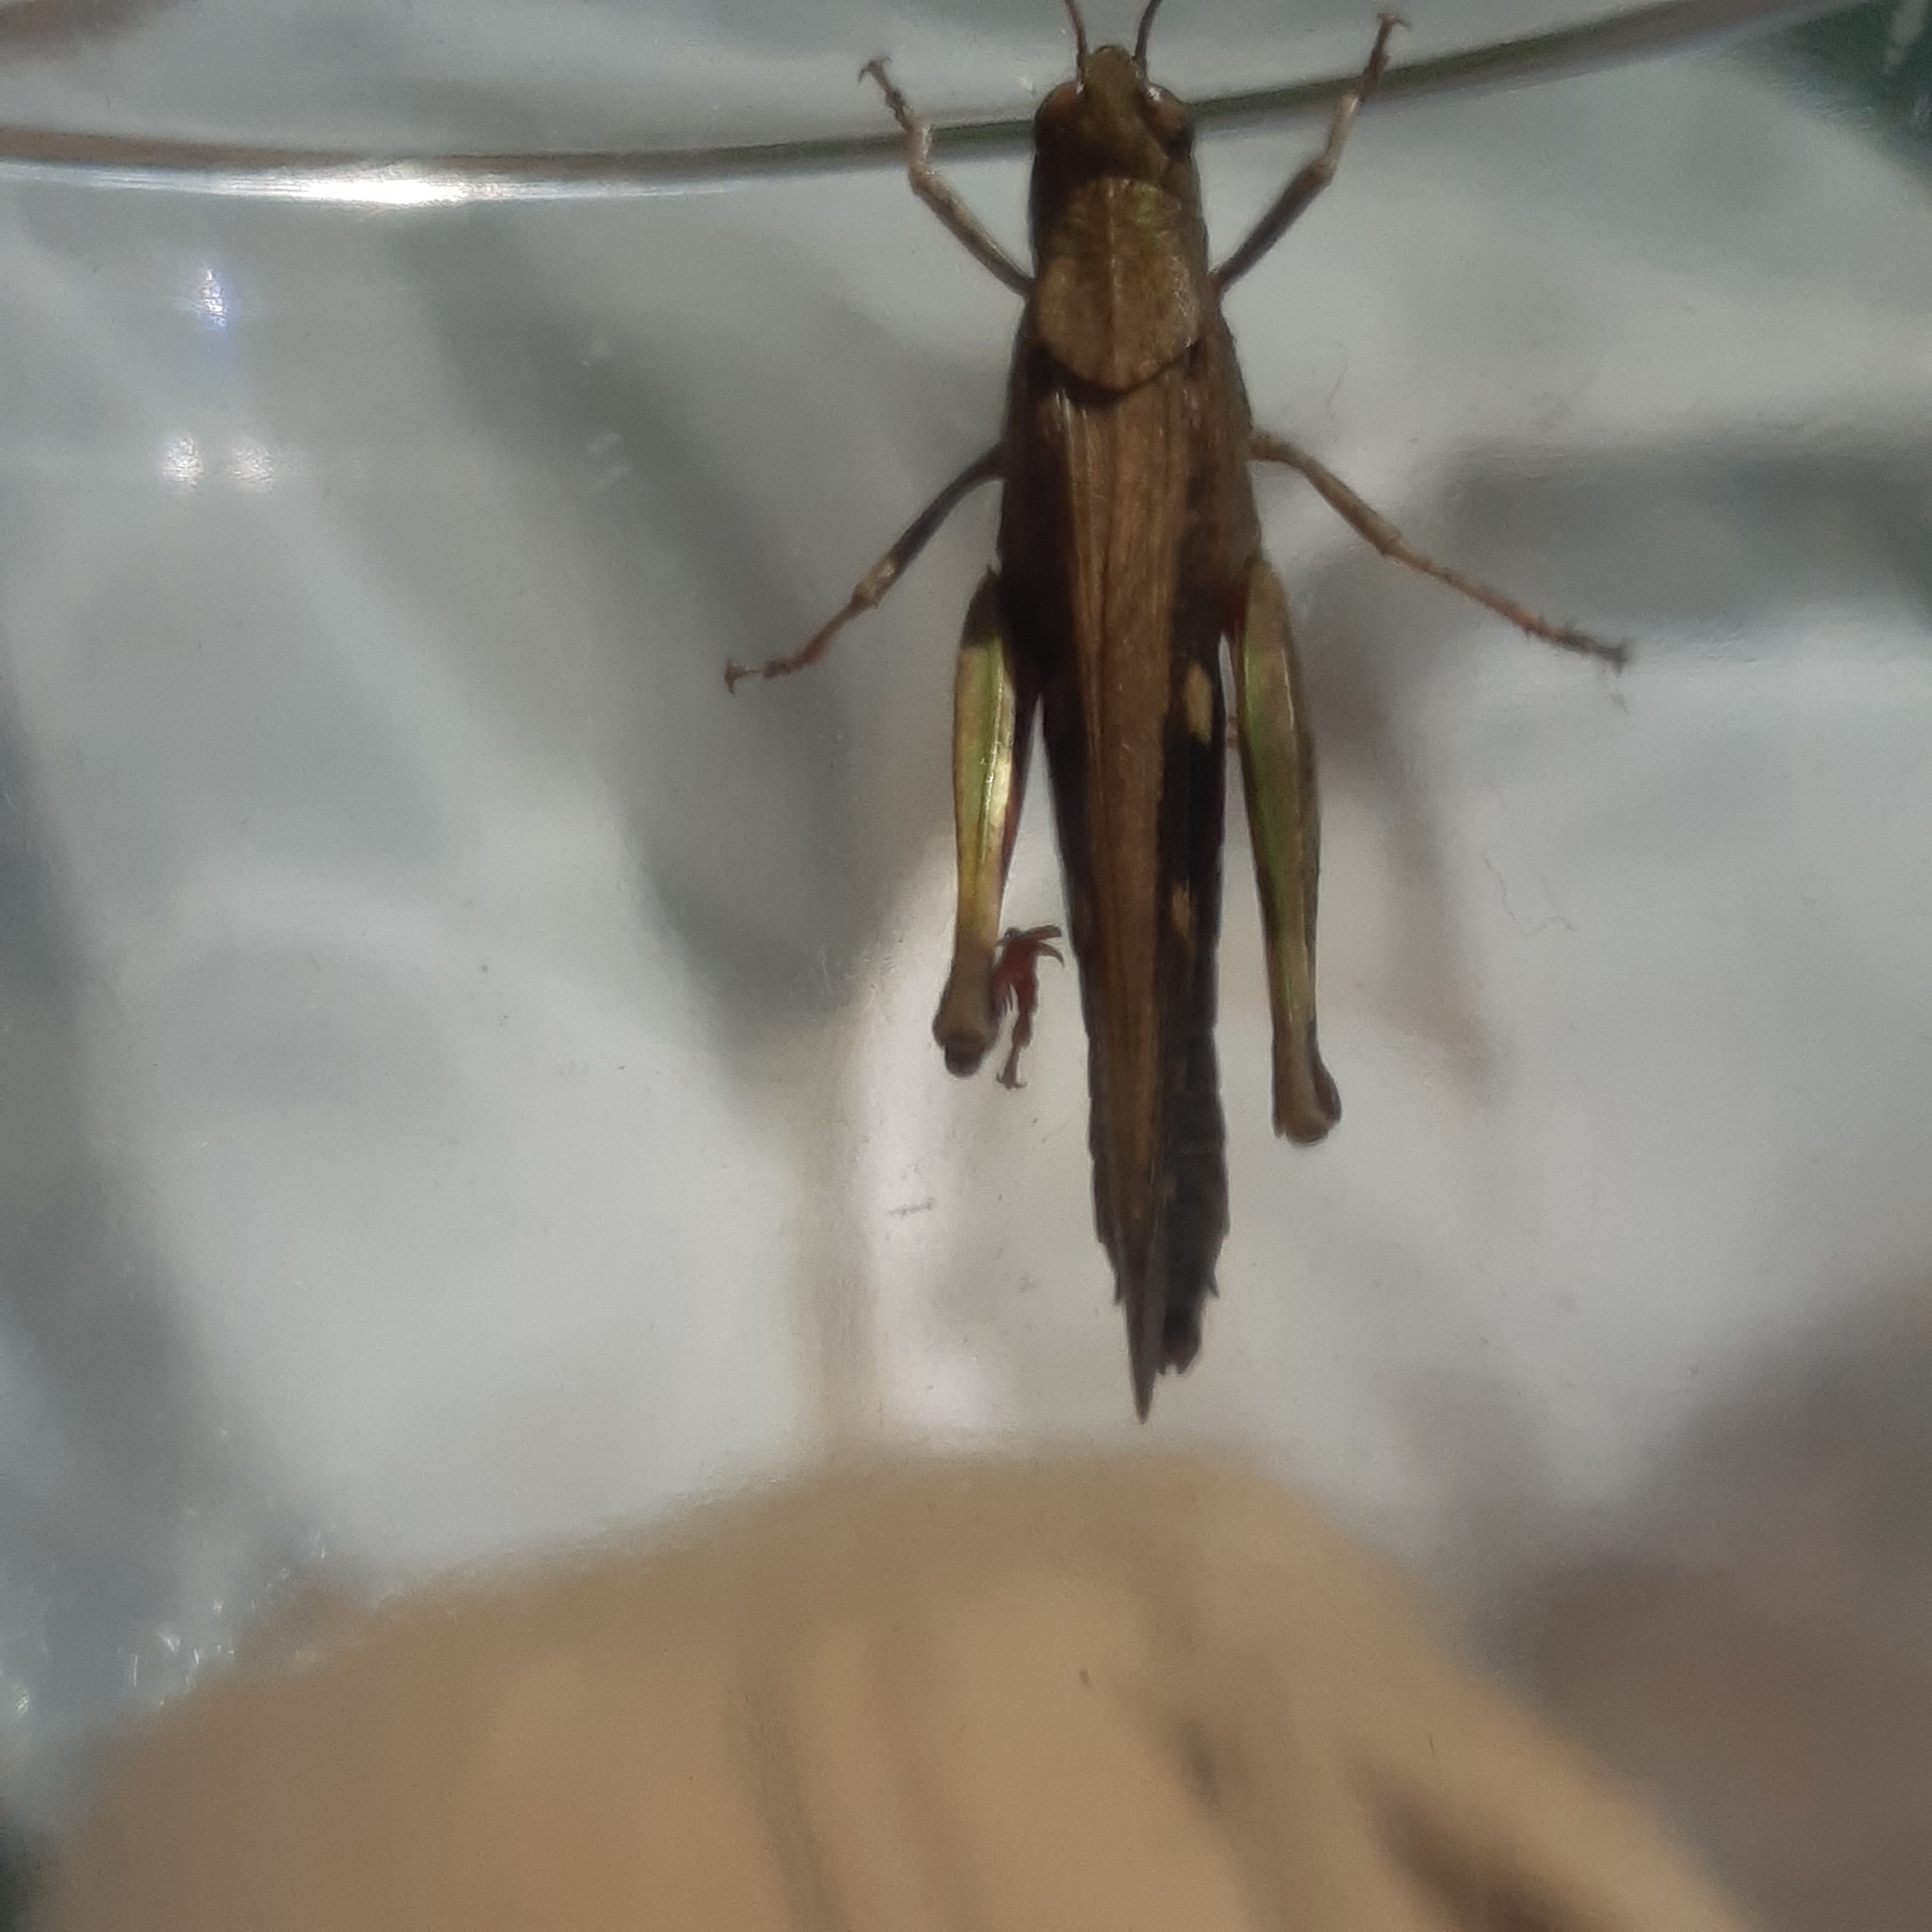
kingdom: Animalia
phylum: Arthropoda
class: Insecta
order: Orthoptera
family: Acrididae
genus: Aiolopus
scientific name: Aiolopus strepens
